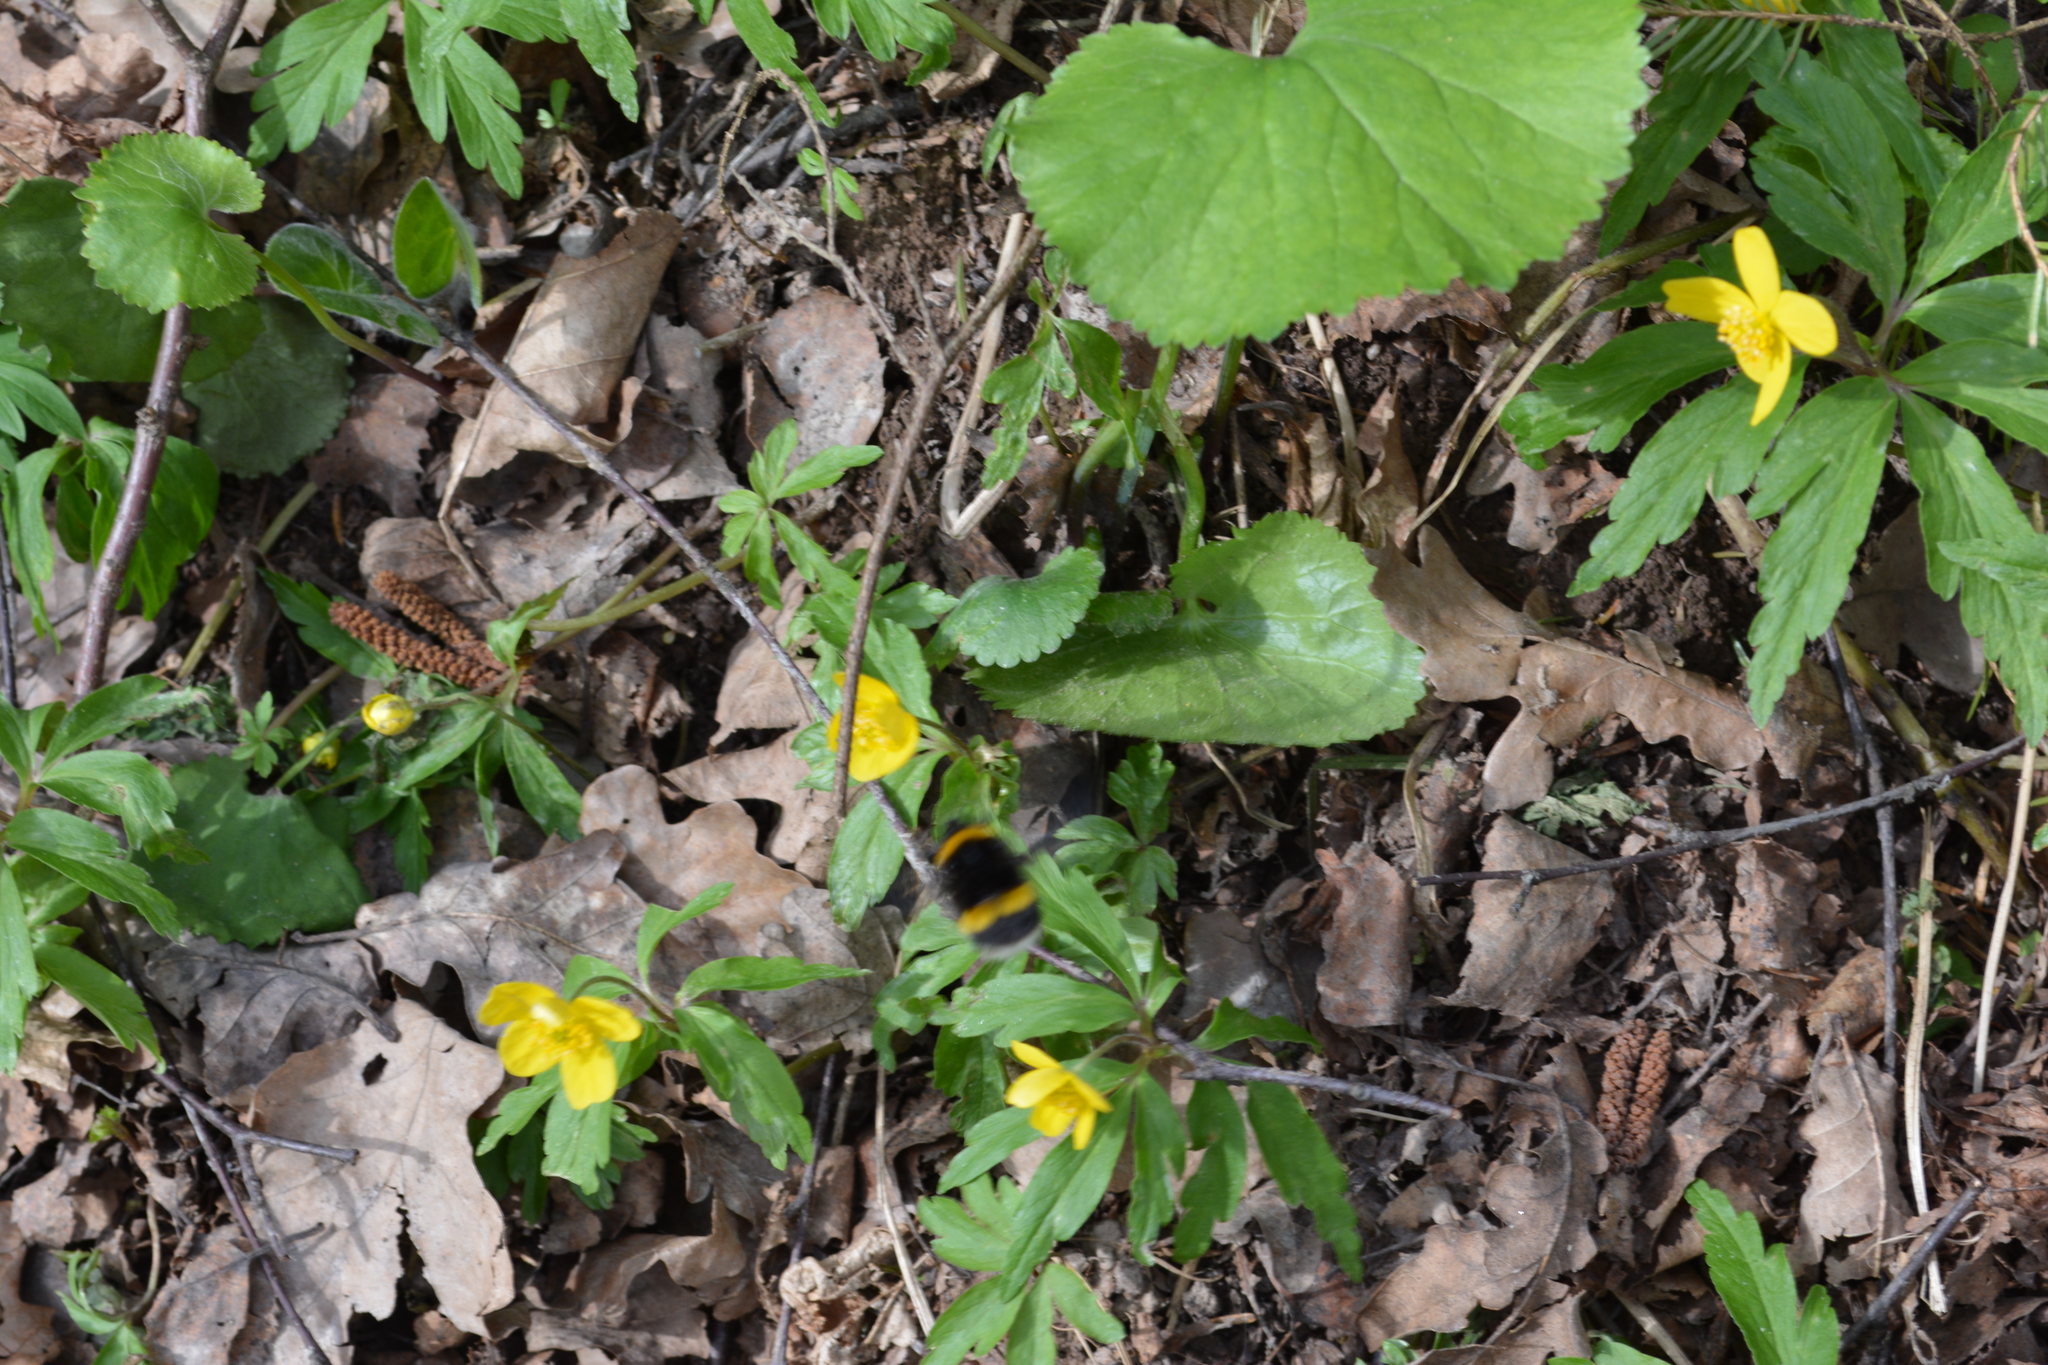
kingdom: Animalia
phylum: Arthropoda
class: Insecta
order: Hymenoptera
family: Apidae
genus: Bombus
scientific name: Bombus
